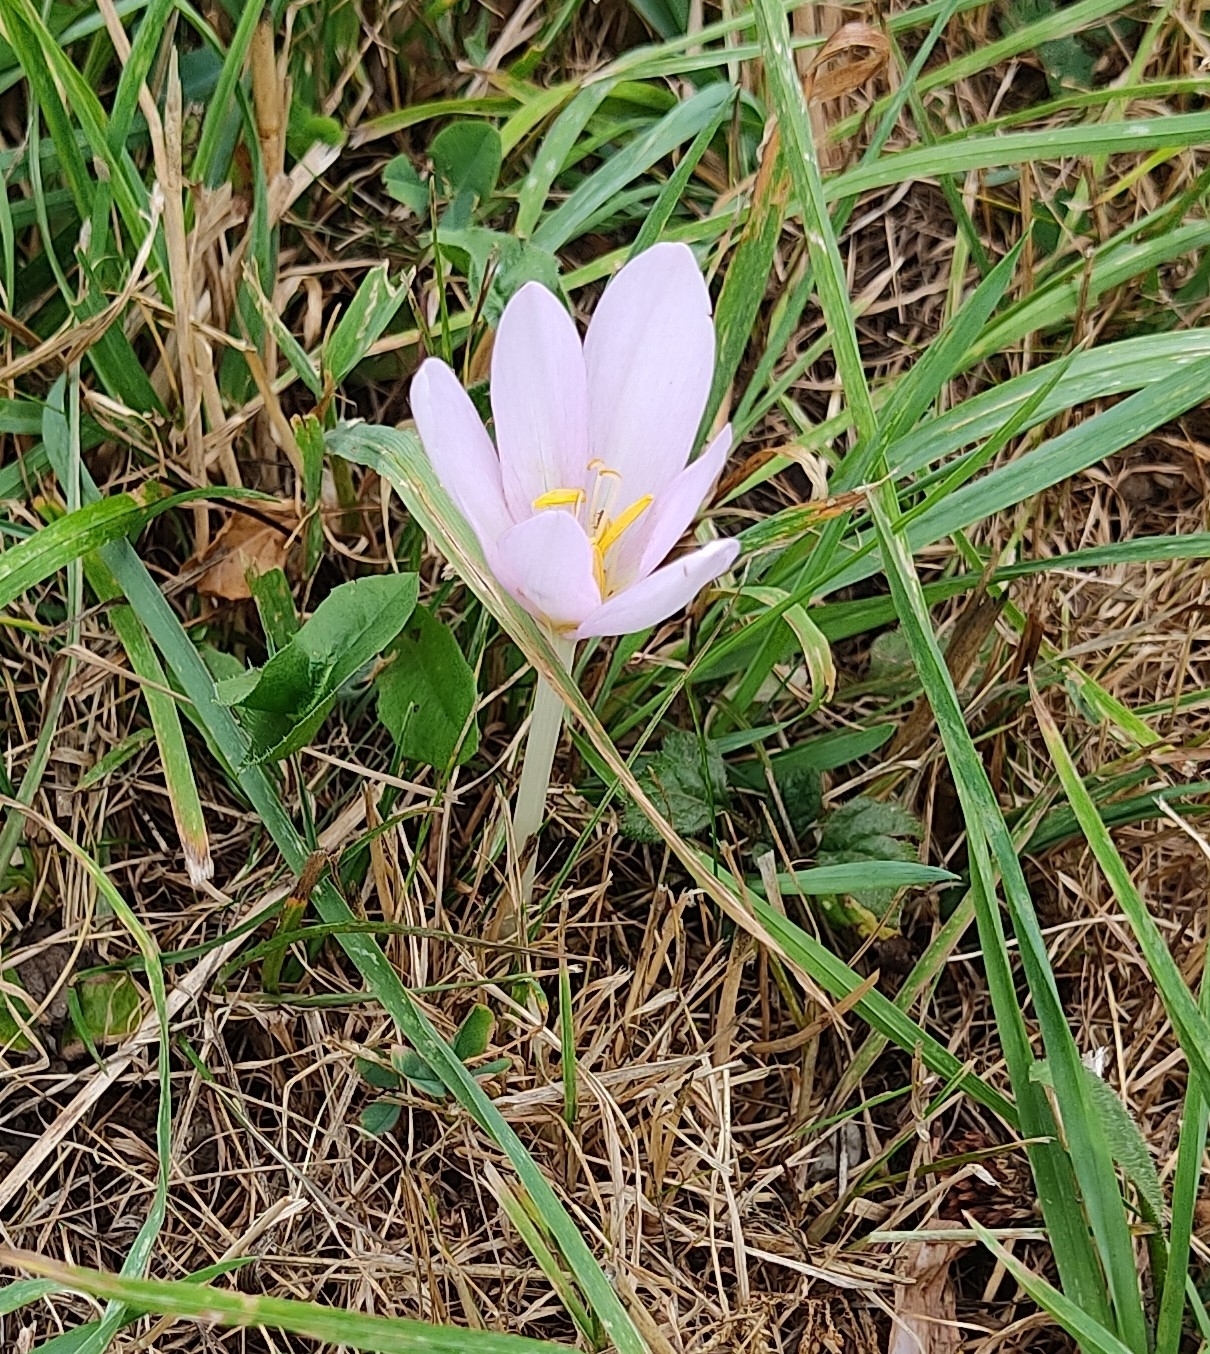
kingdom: Plantae
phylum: Tracheophyta
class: Liliopsida
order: Liliales
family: Colchicaceae
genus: Colchicum
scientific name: Colchicum autumnale
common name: Autumn crocus
